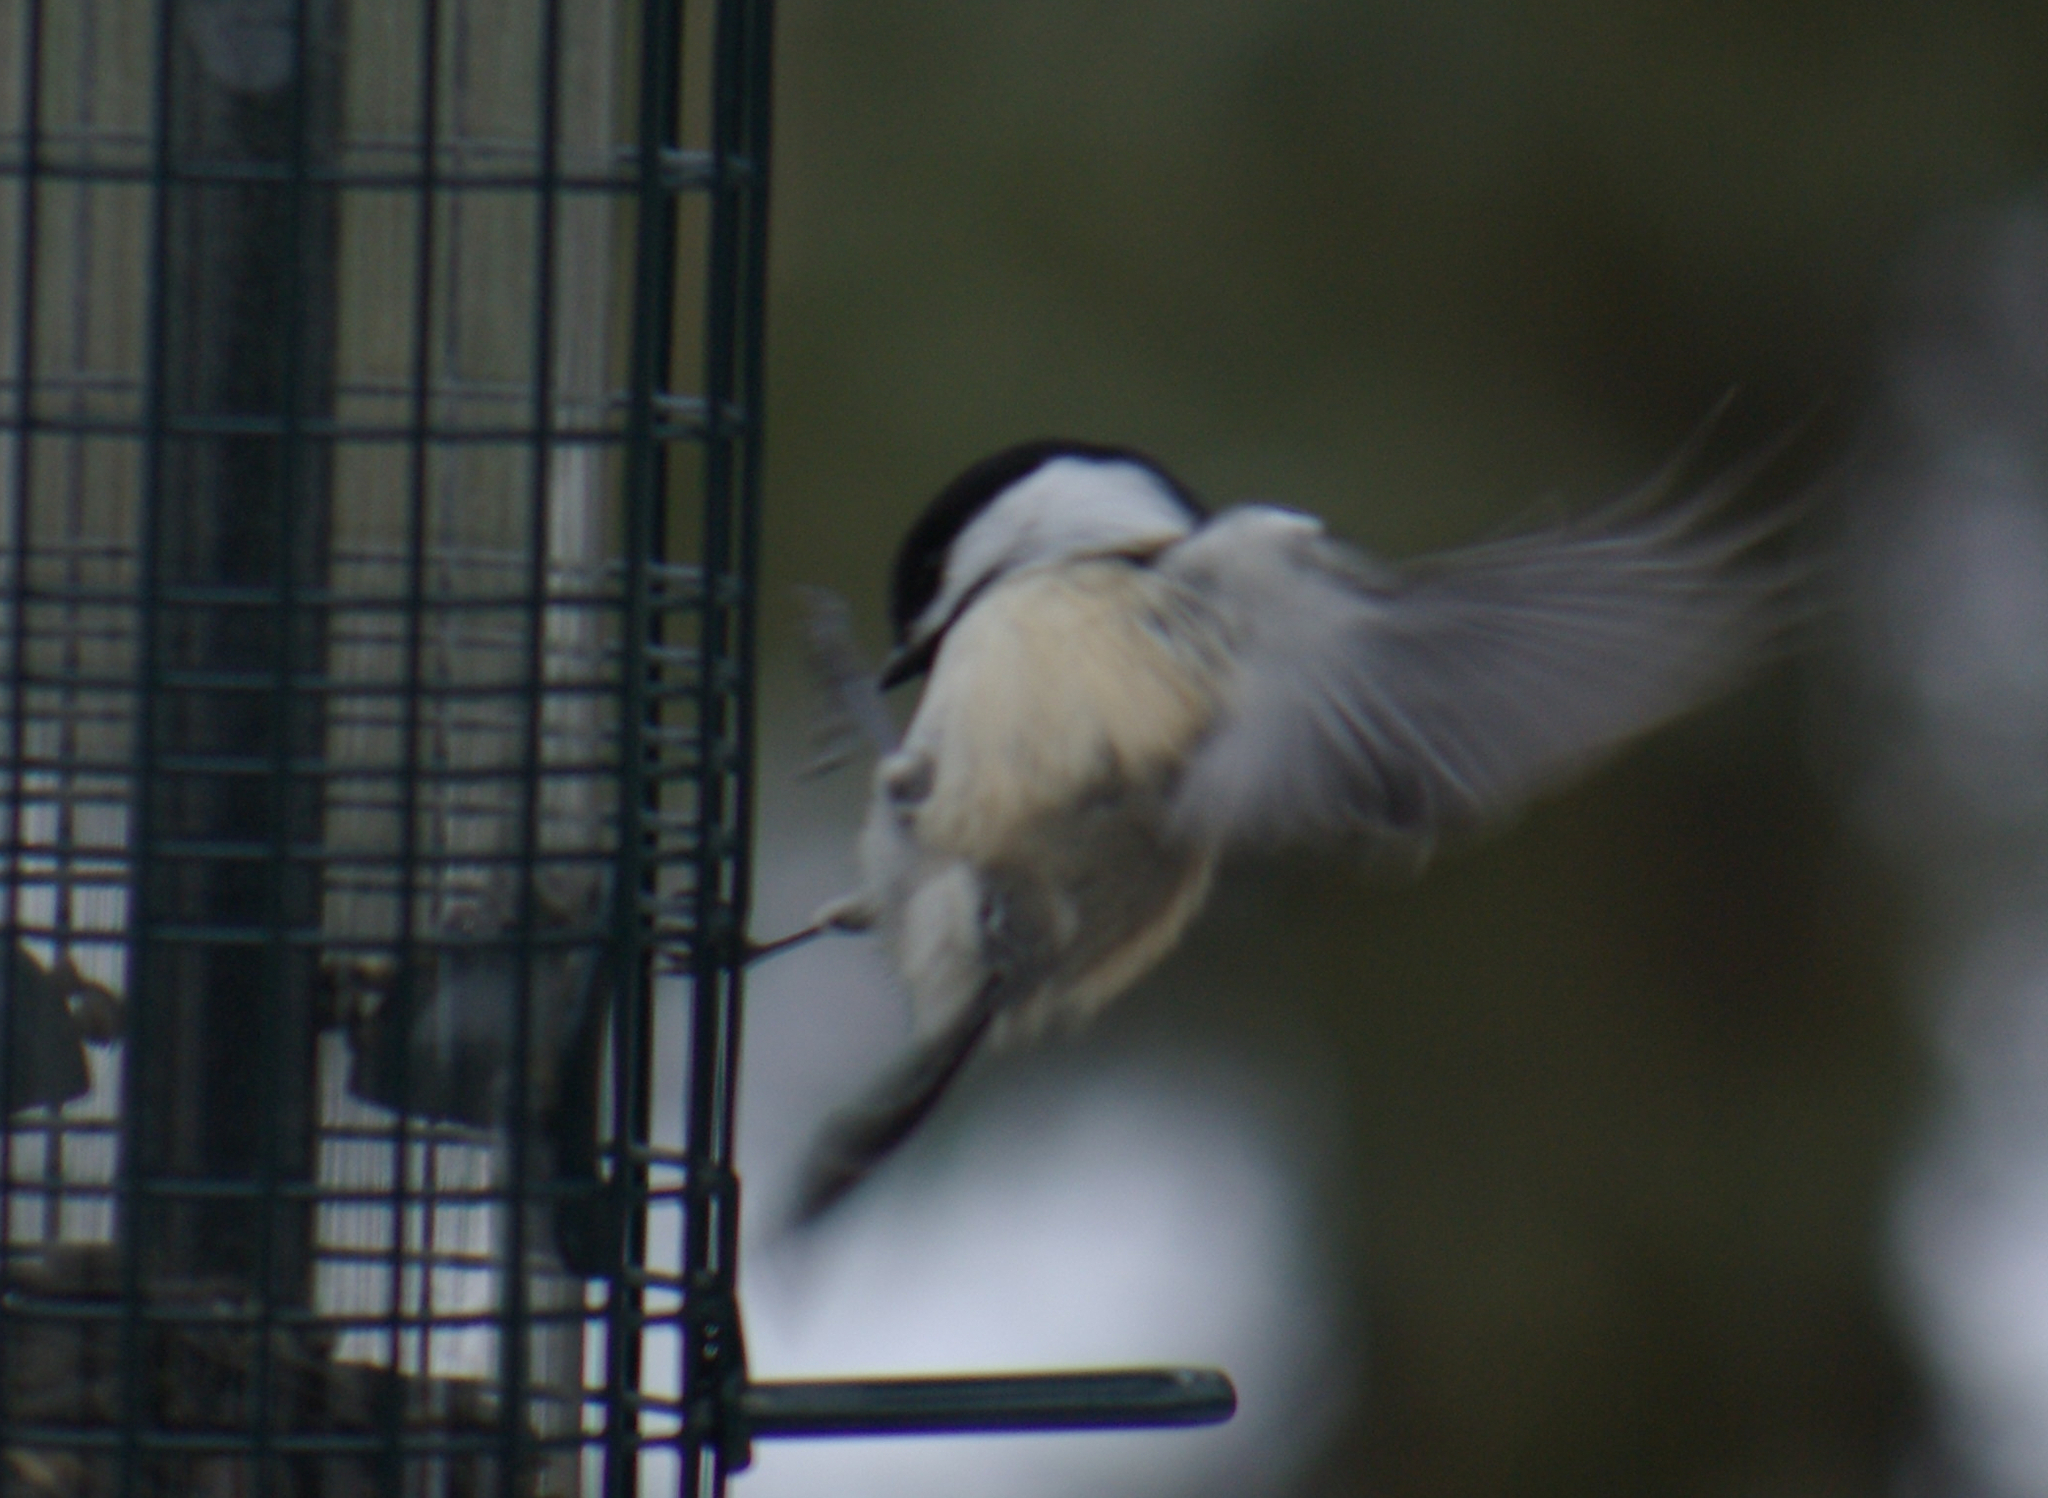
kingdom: Animalia
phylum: Chordata
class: Aves
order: Passeriformes
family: Paridae
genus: Poecile
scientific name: Poecile atricapillus
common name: Black-capped chickadee
